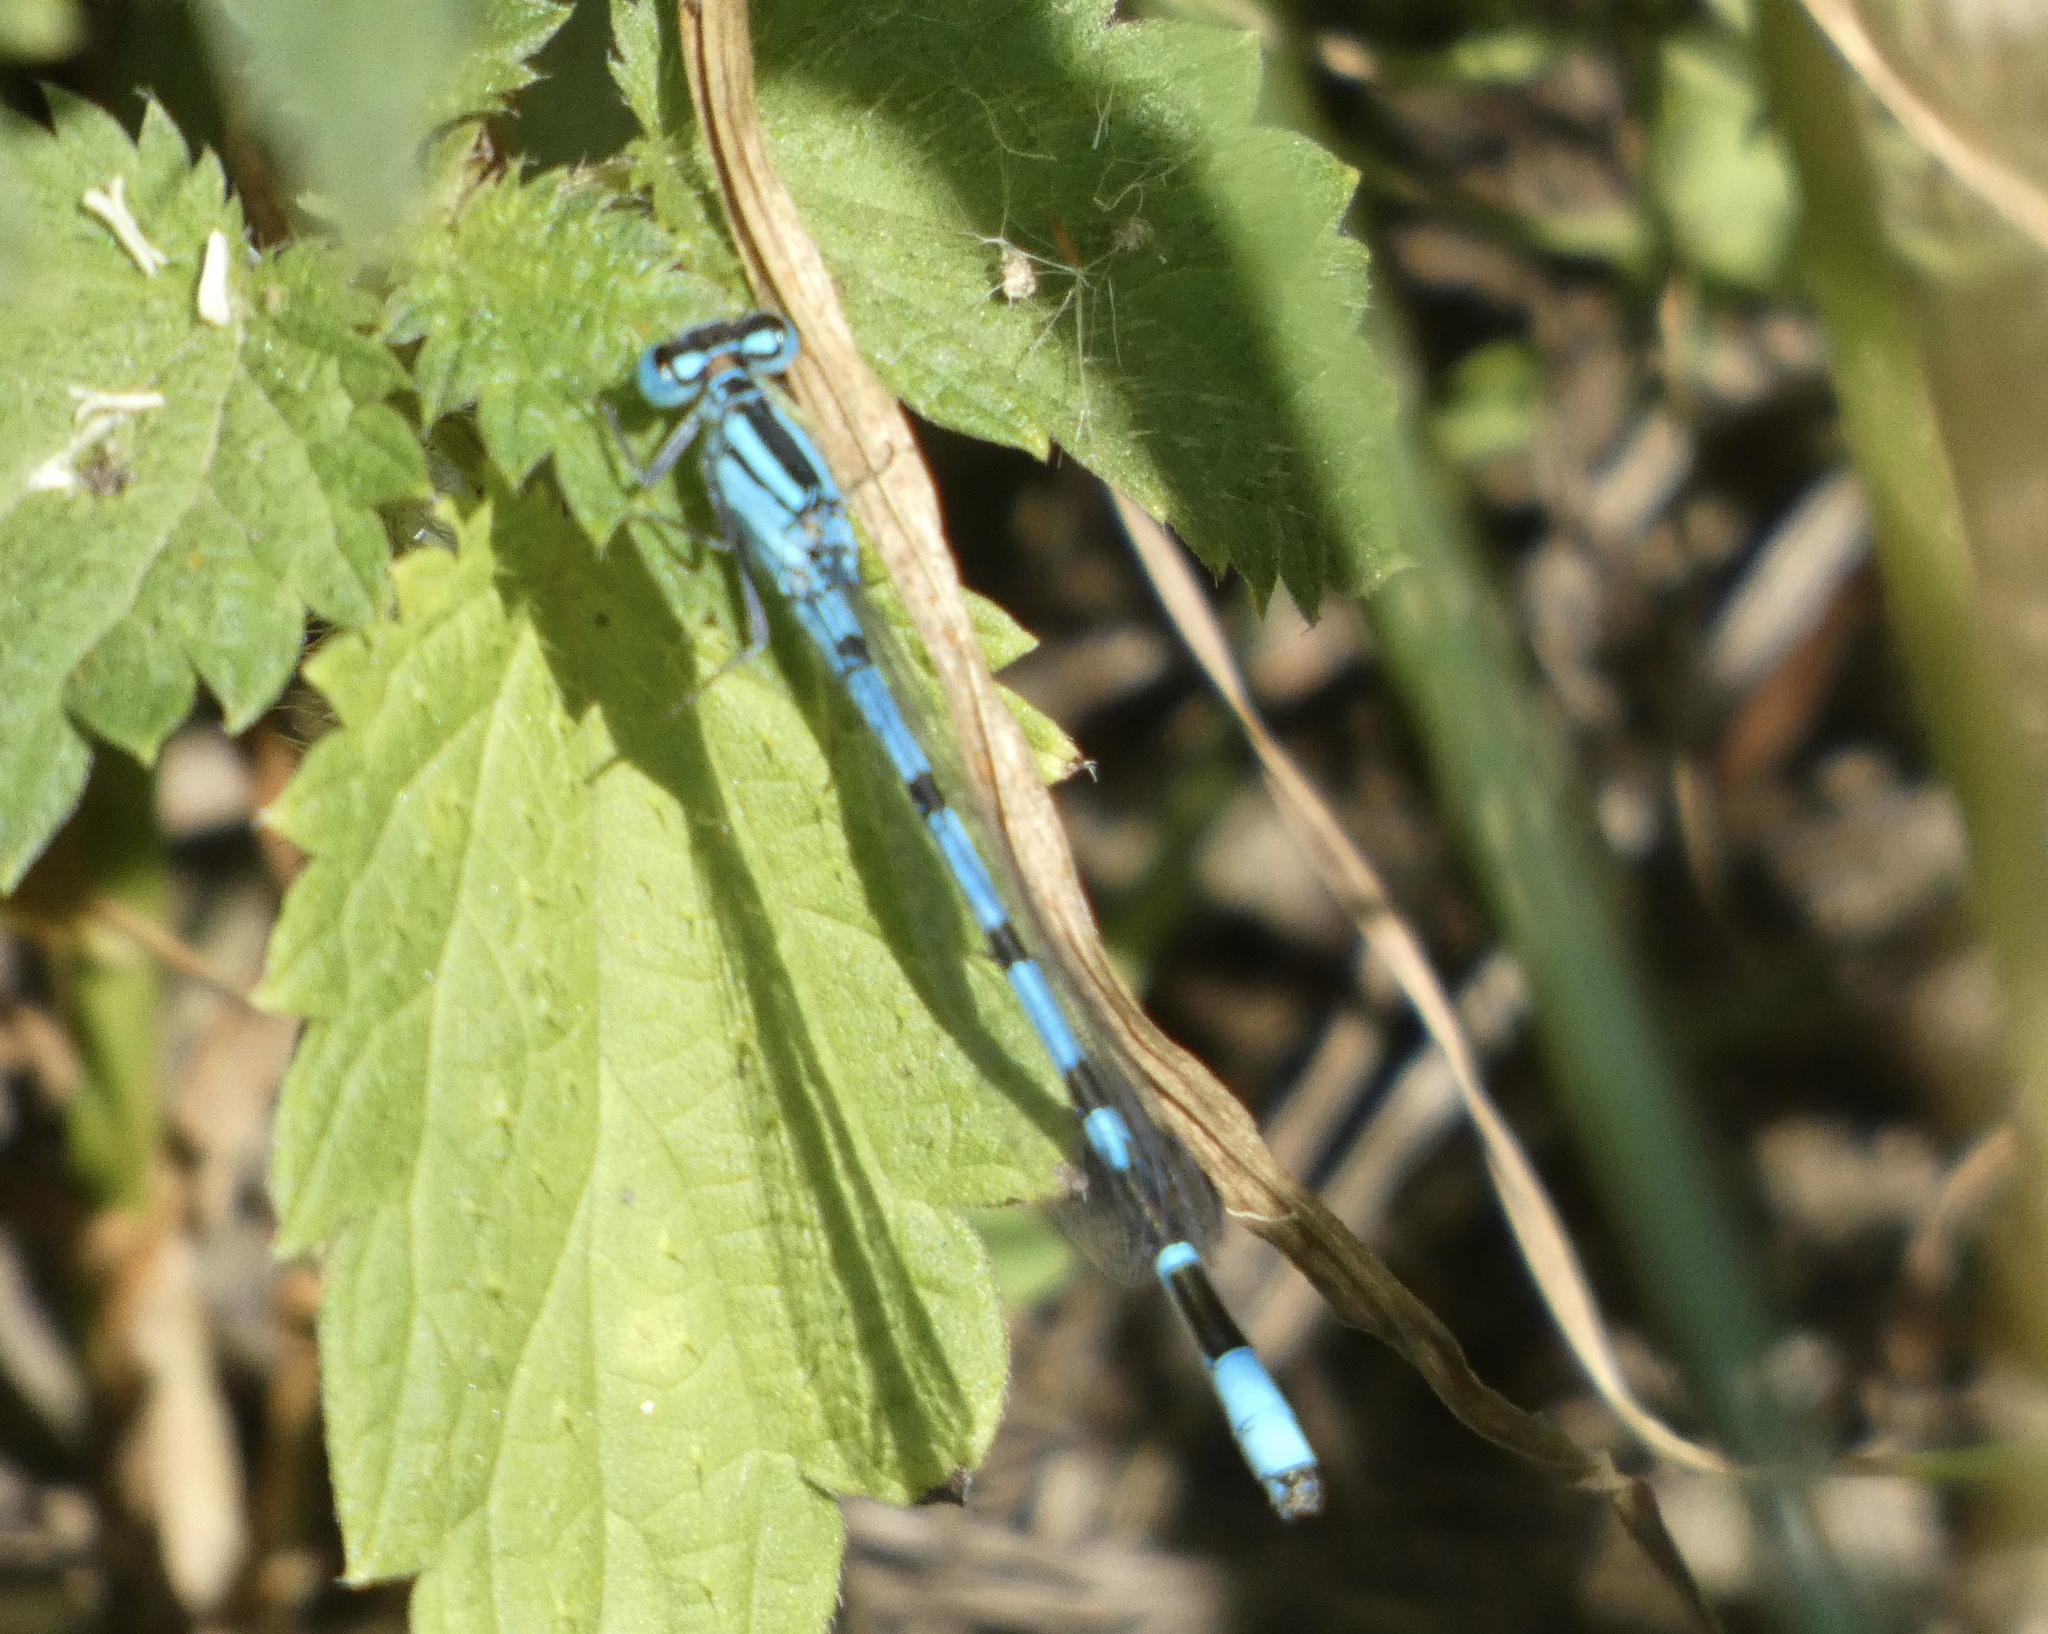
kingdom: Animalia
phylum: Arthropoda
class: Insecta
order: Odonata
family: Coenagrionidae
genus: Enallagma
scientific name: Enallagma cyathigerum
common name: Common blue damselfly
